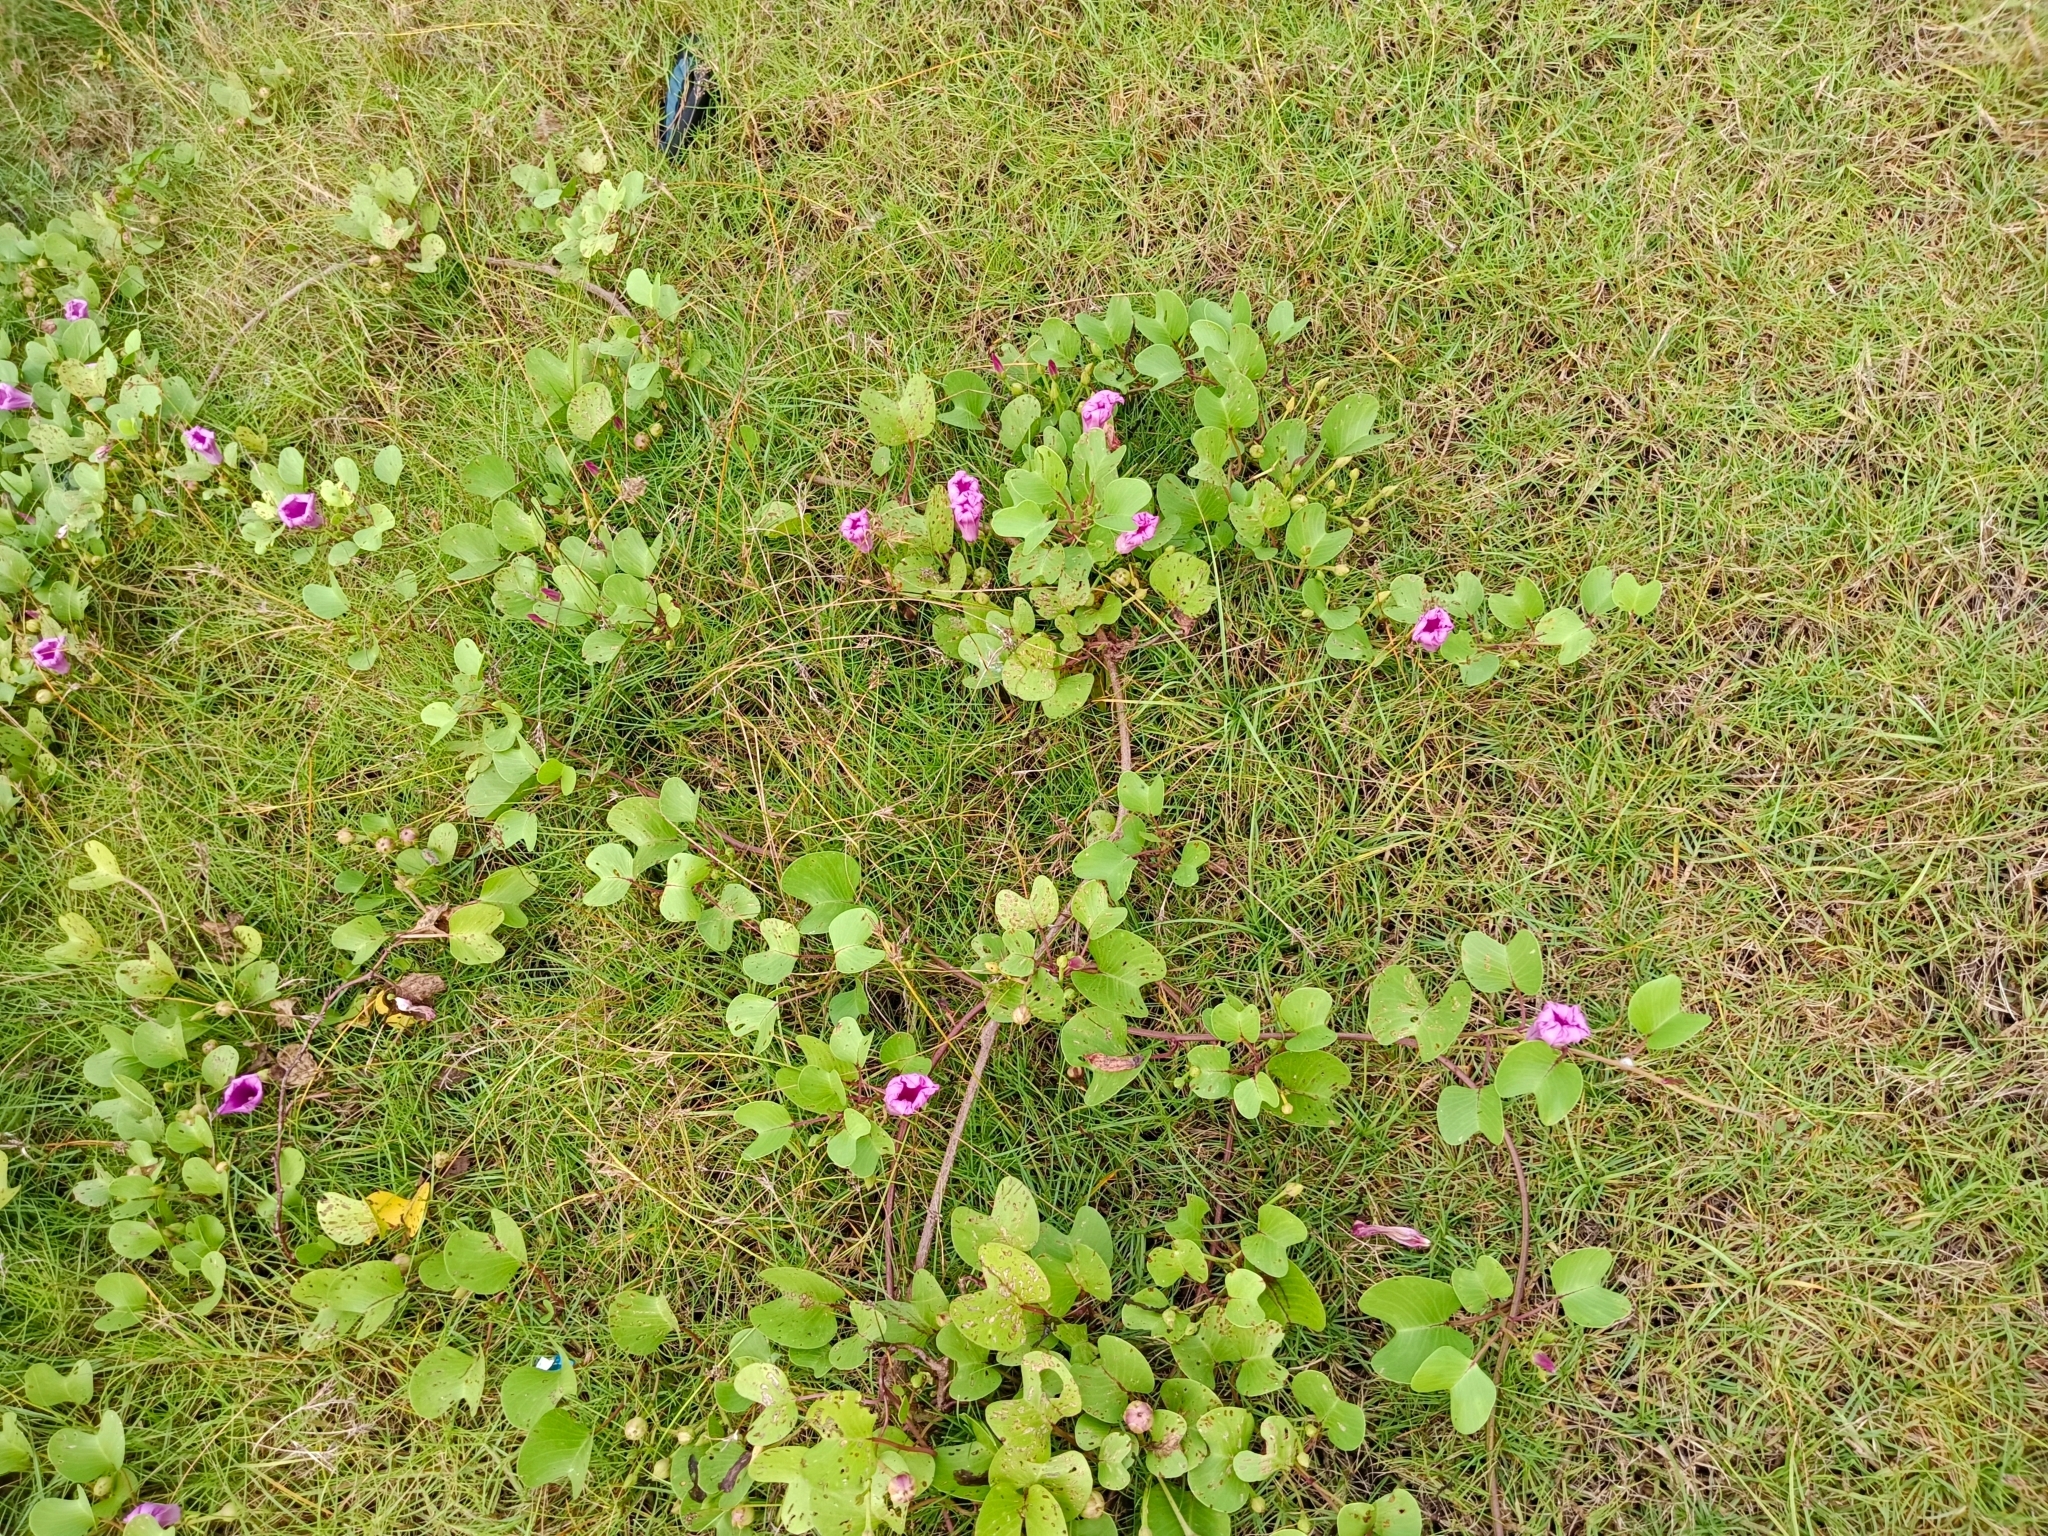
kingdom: Plantae
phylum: Tracheophyta
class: Magnoliopsida
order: Solanales
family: Convolvulaceae
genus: Ipomoea
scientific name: Ipomoea pes-caprae
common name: Beach morning glory
